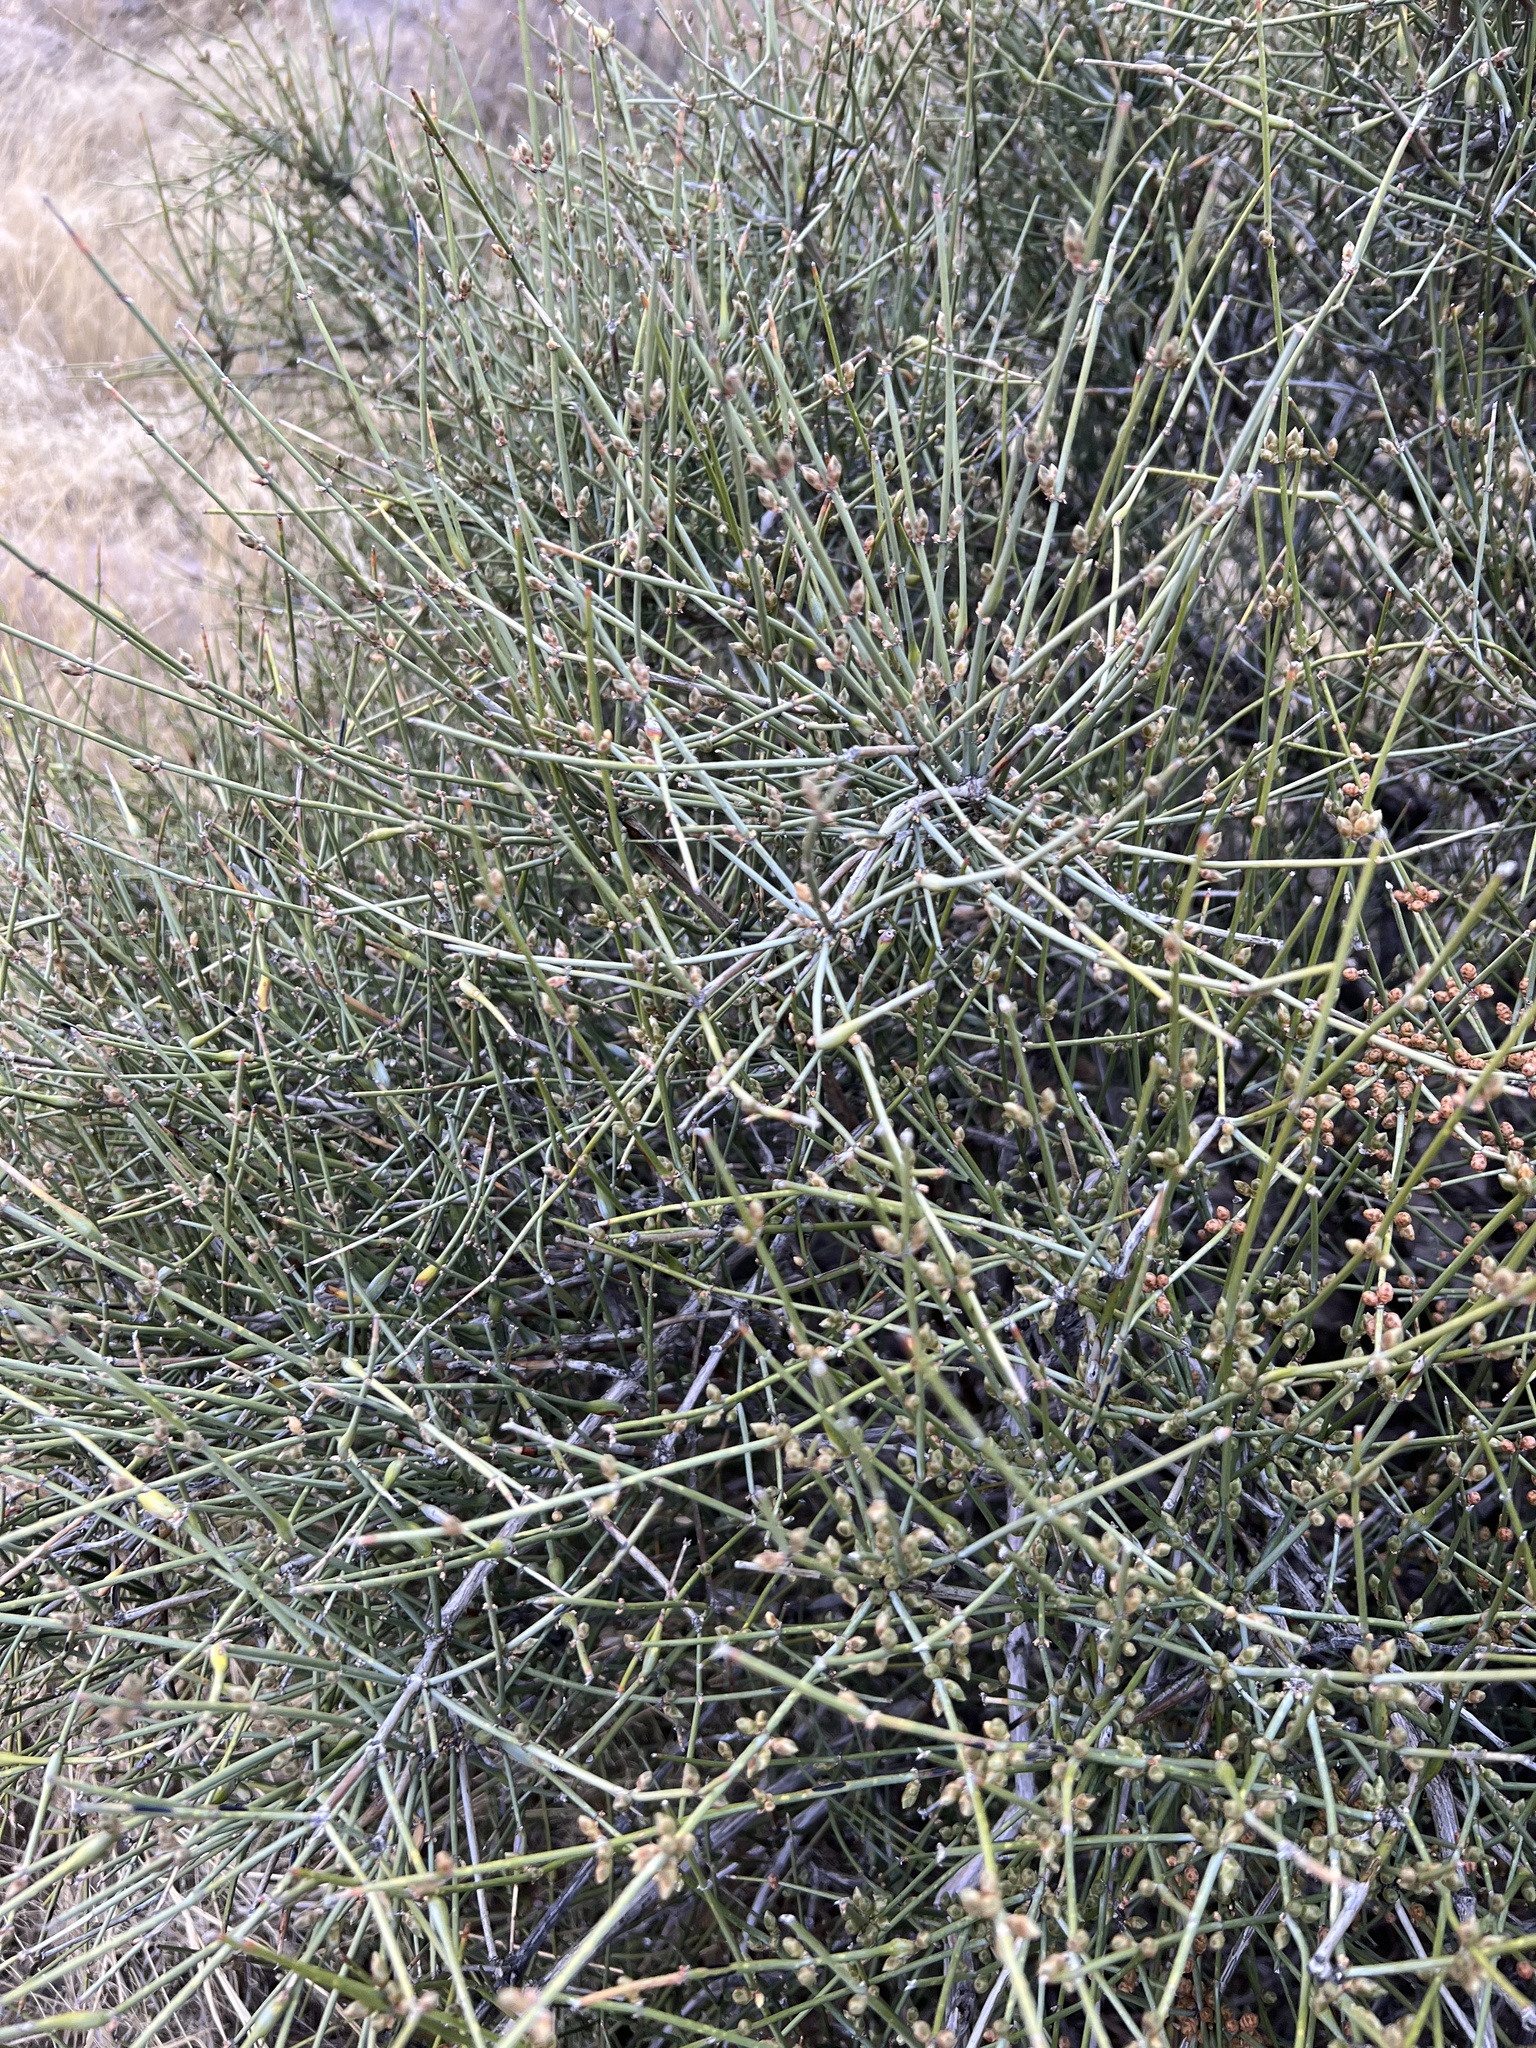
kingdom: Plantae
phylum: Tracheophyta
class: Gnetopsida
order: Ephedrales
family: Ephedraceae
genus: Ephedra
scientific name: Ephedra aspera
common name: Boundary ephedra
